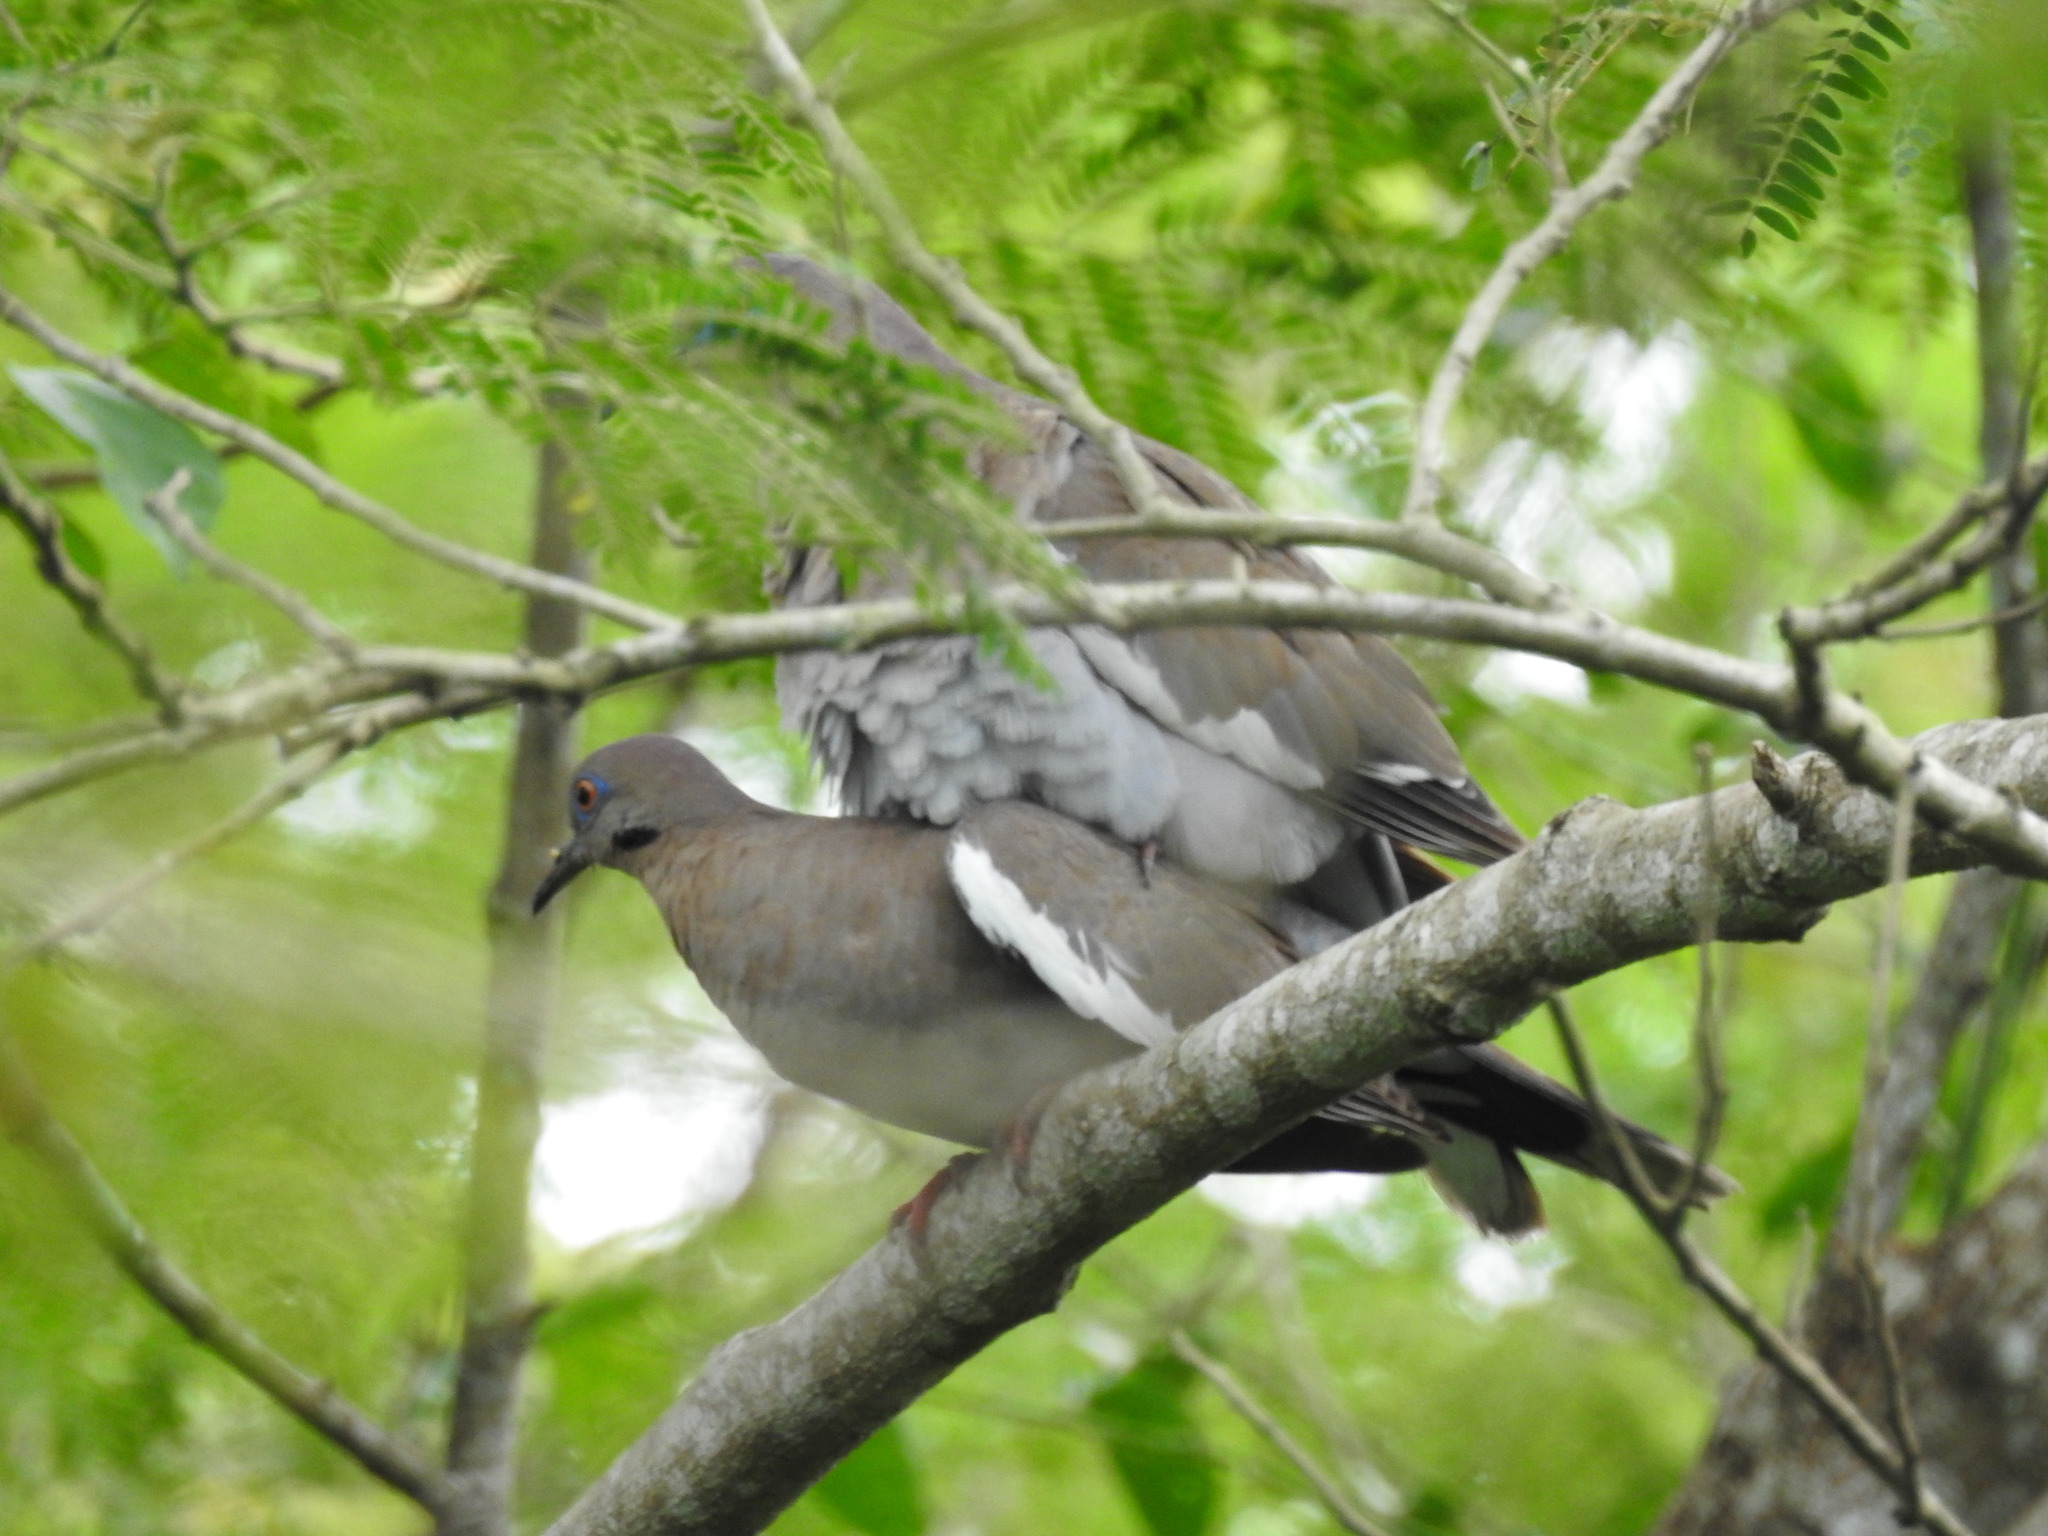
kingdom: Animalia
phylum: Chordata
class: Aves
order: Columbiformes
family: Columbidae
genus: Zenaida
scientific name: Zenaida asiatica
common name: White-winged dove
